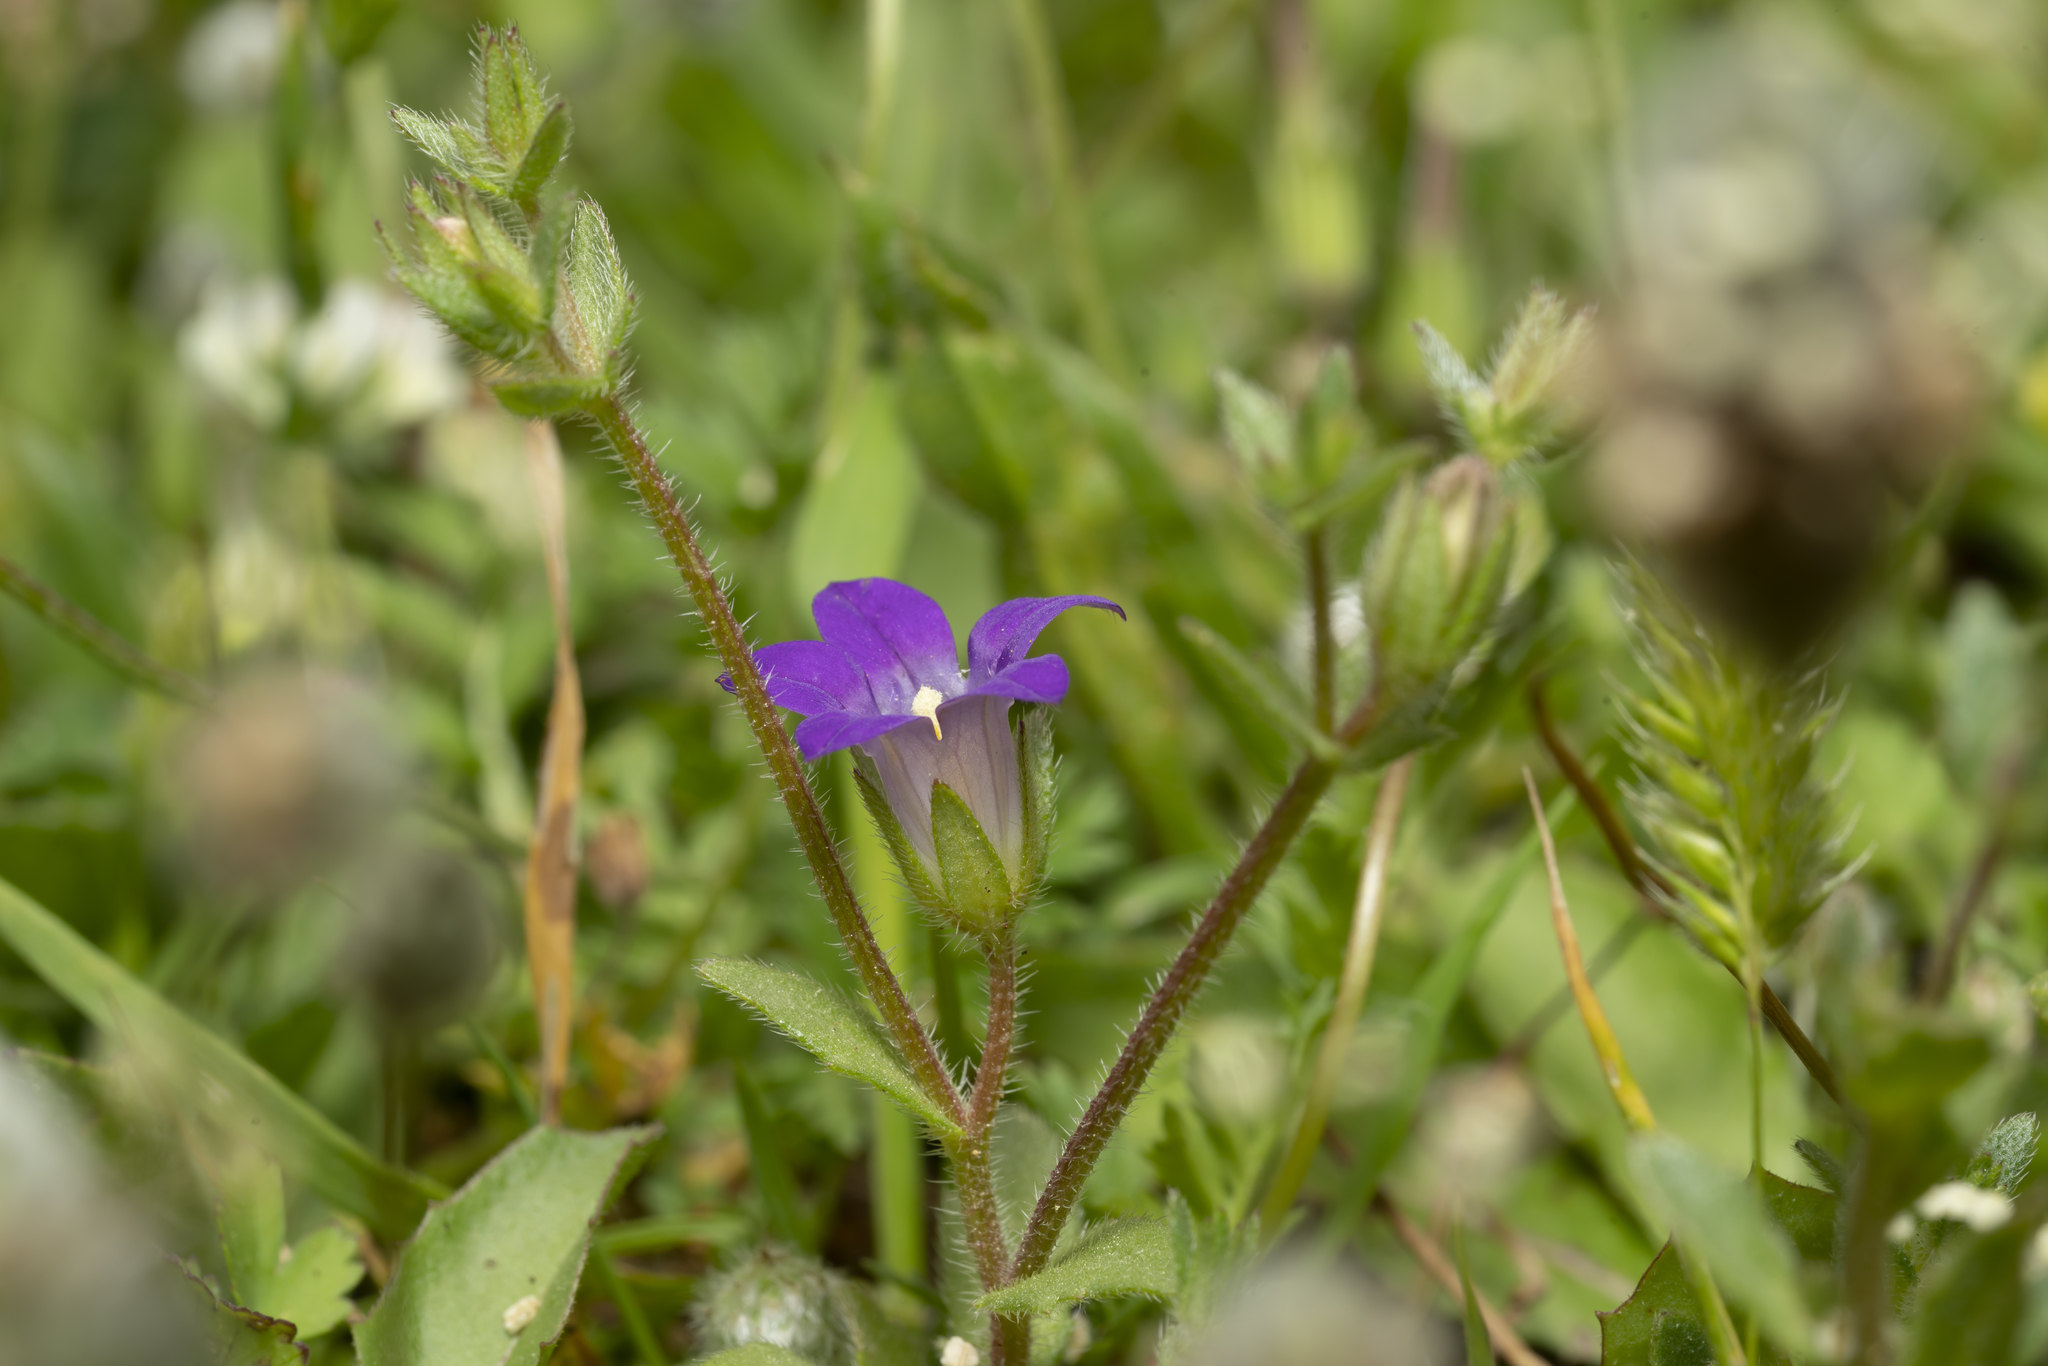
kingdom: Plantae
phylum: Tracheophyta
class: Magnoliopsida
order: Asterales
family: Campanulaceae
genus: Campanula
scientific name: Campanula rhodensis
